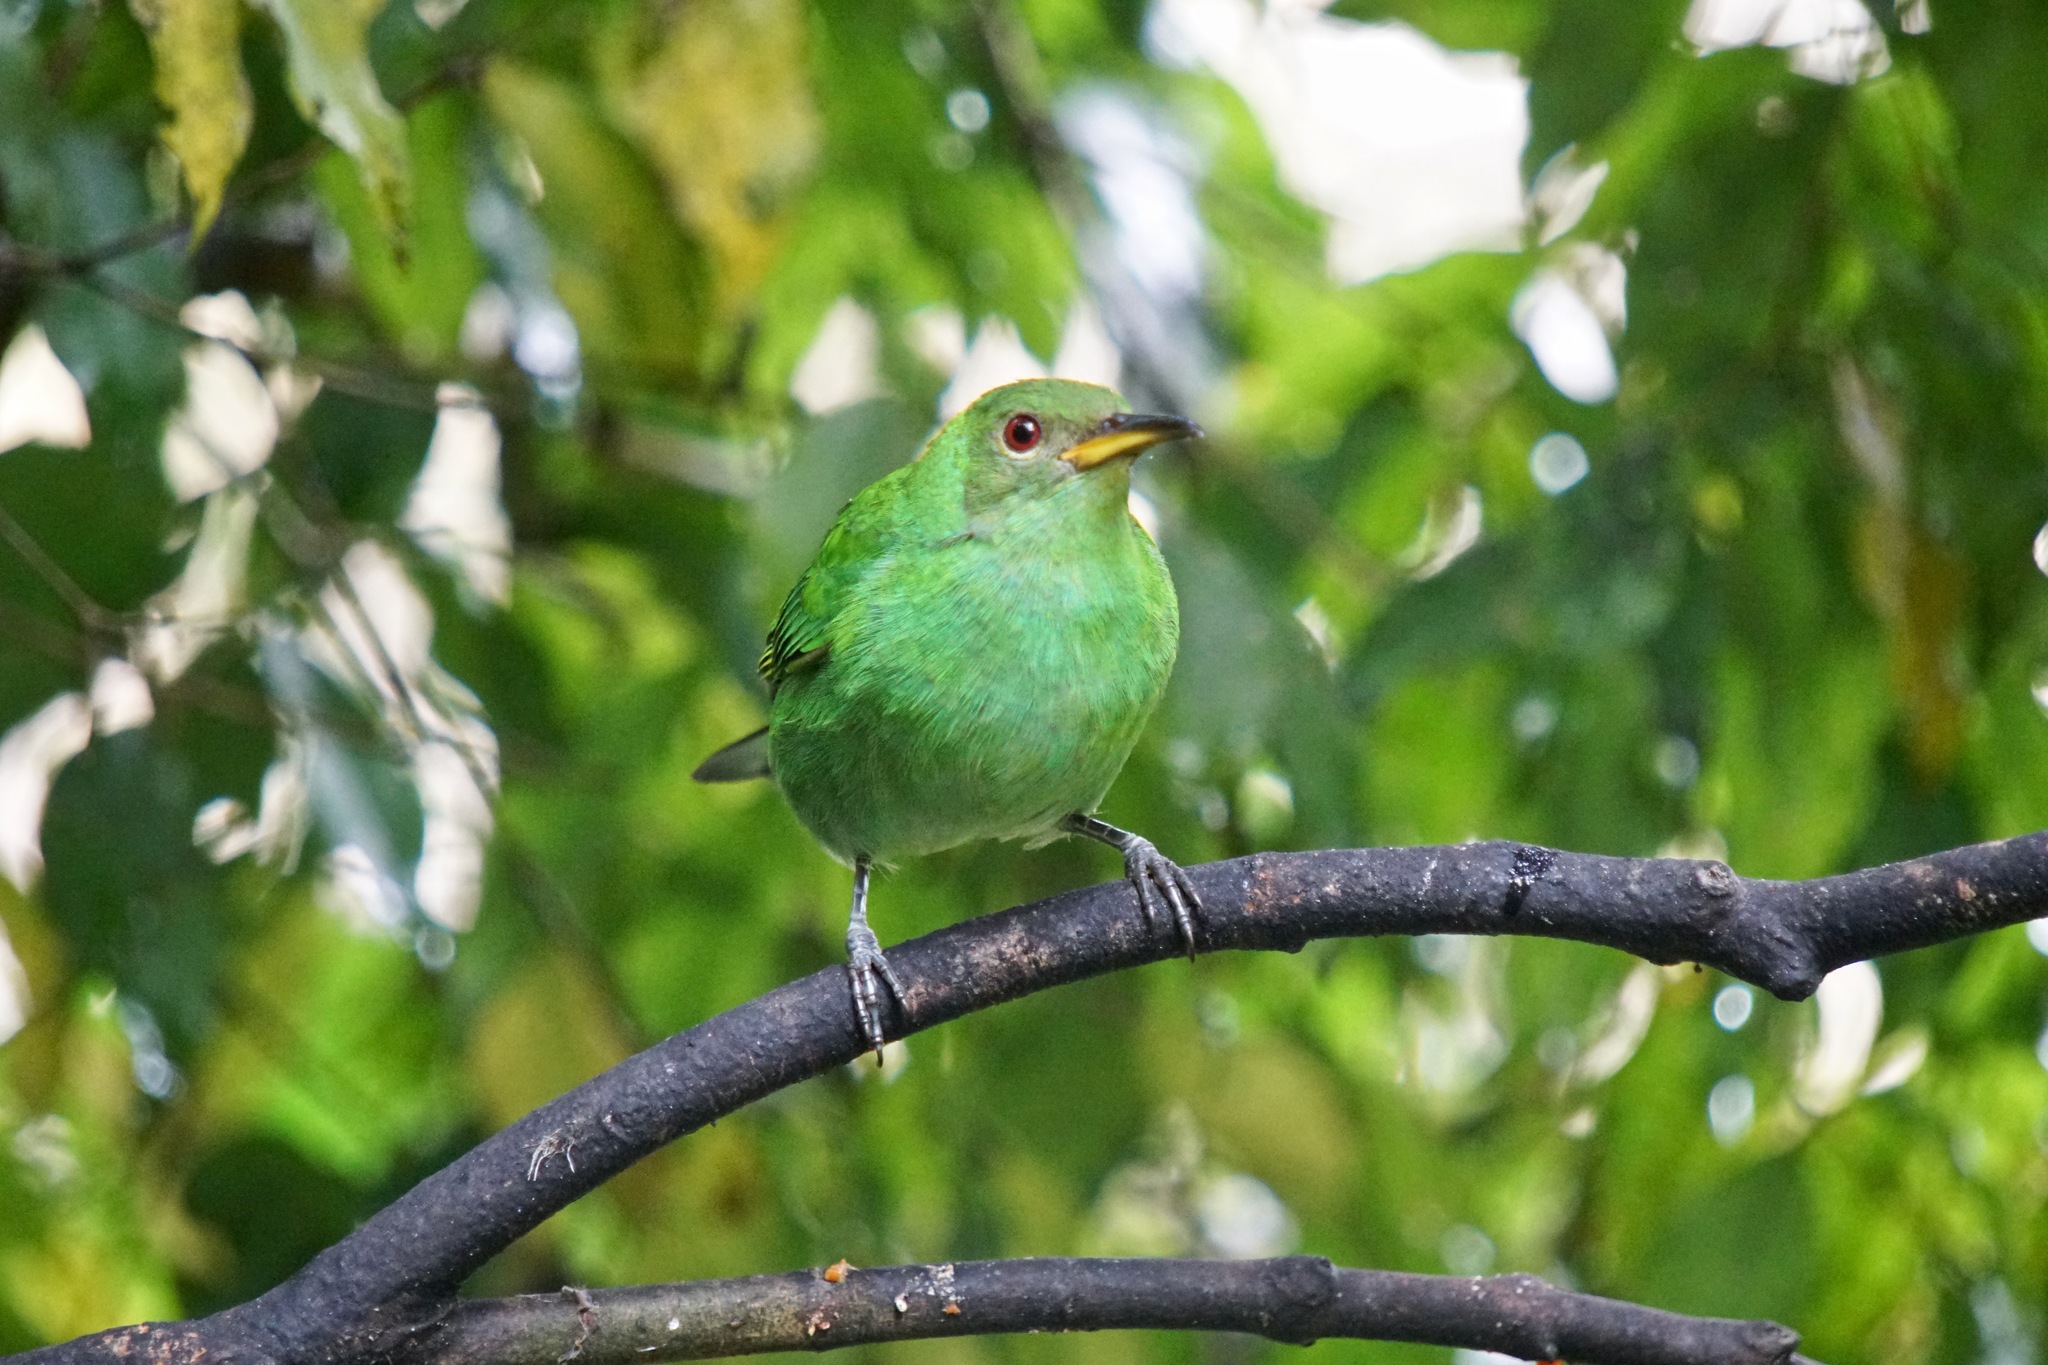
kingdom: Animalia
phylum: Chordata
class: Aves
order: Passeriformes
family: Thraupidae
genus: Chlorophanes
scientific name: Chlorophanes spiza
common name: Green honeycreeper
